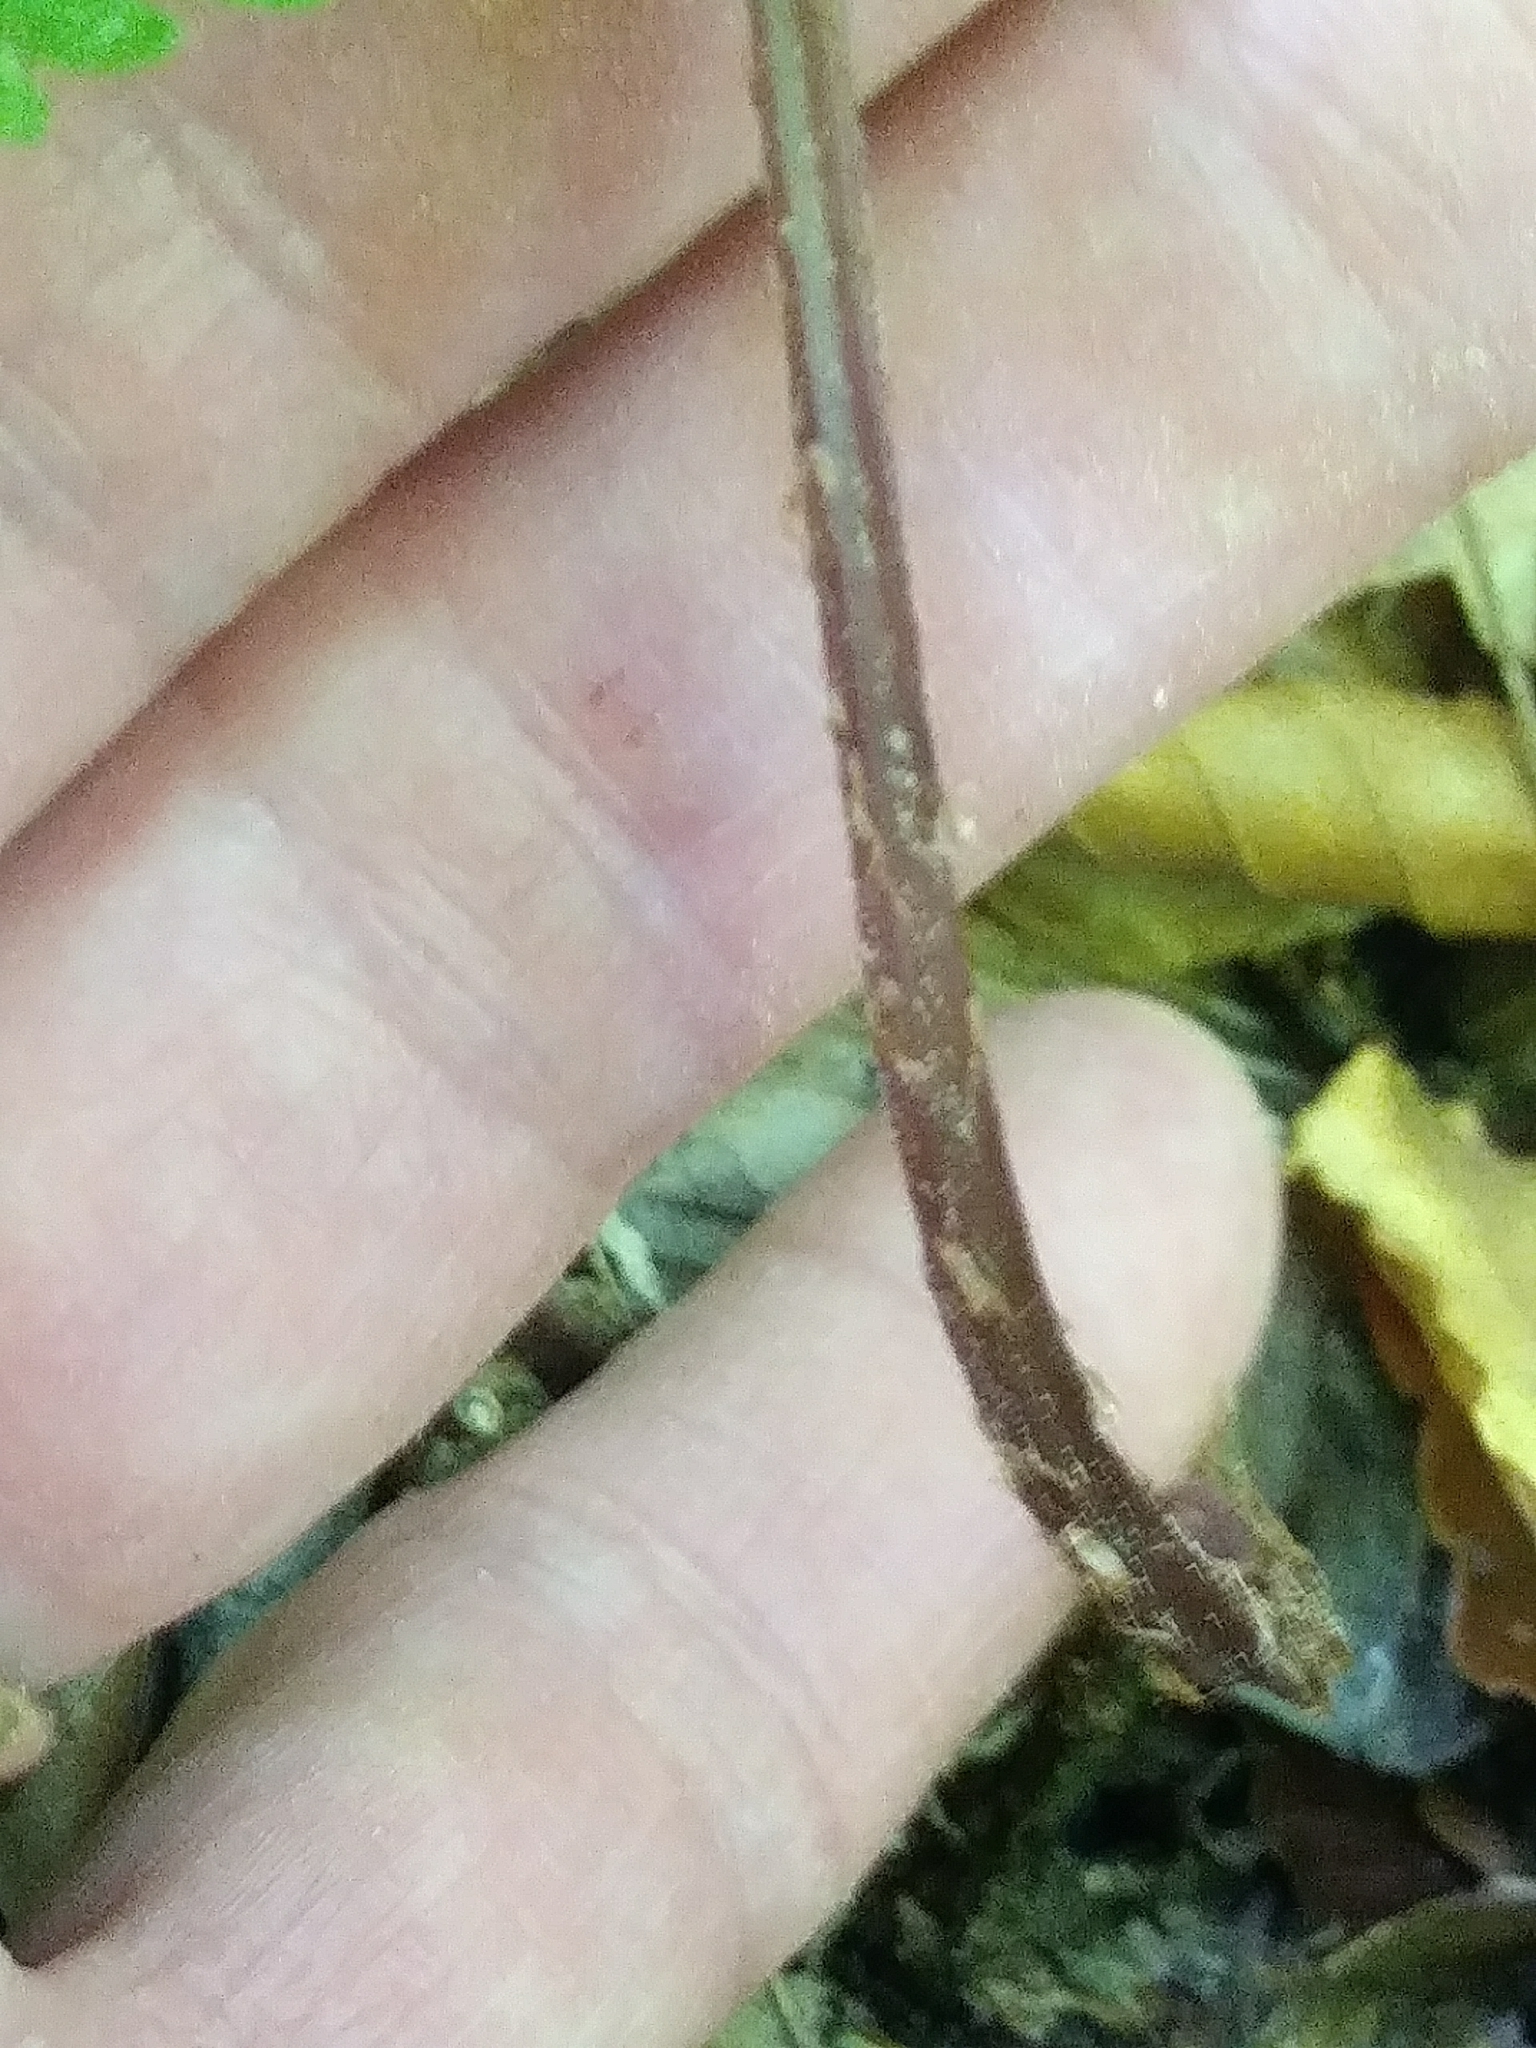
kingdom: Plantae
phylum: Tracheophyta
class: Polypodiopsida
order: Polypodiales
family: Athyriaceae
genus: Deparia
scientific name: Deparia acrostichoides
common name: Silver false spleenwort
